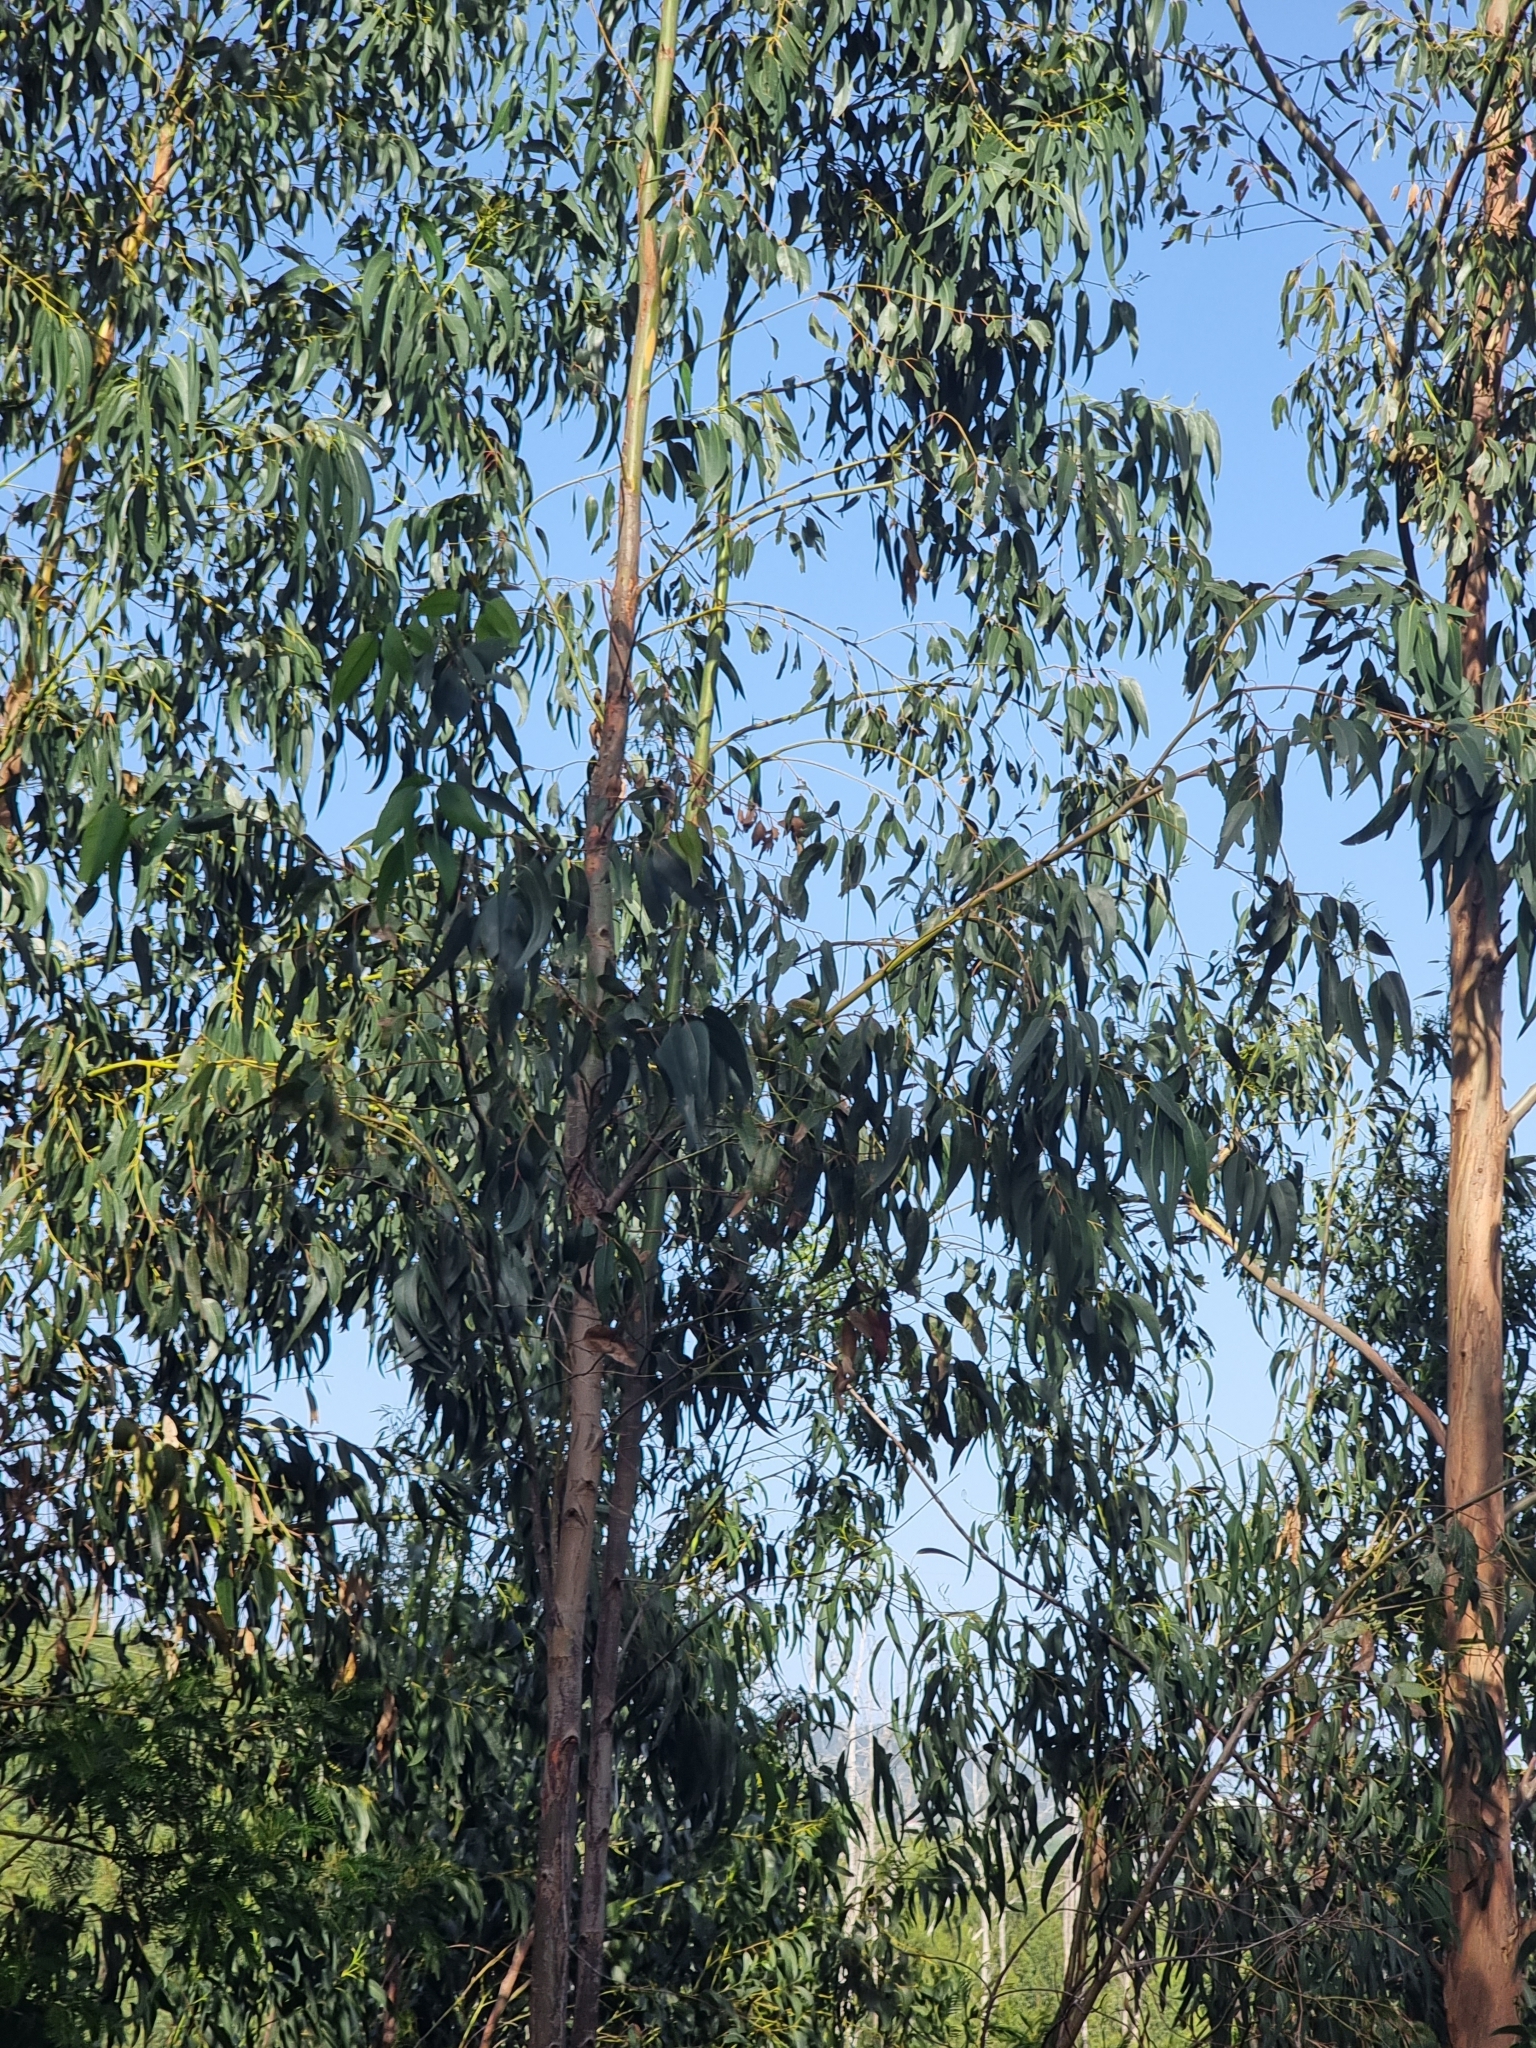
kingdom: Plantae
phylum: Tracheophyta
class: Magnoliopsida
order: Myrtales
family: Myrtaceae
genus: Eucalyptus
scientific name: Eucalyptus globulus
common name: Southern blue-gum
